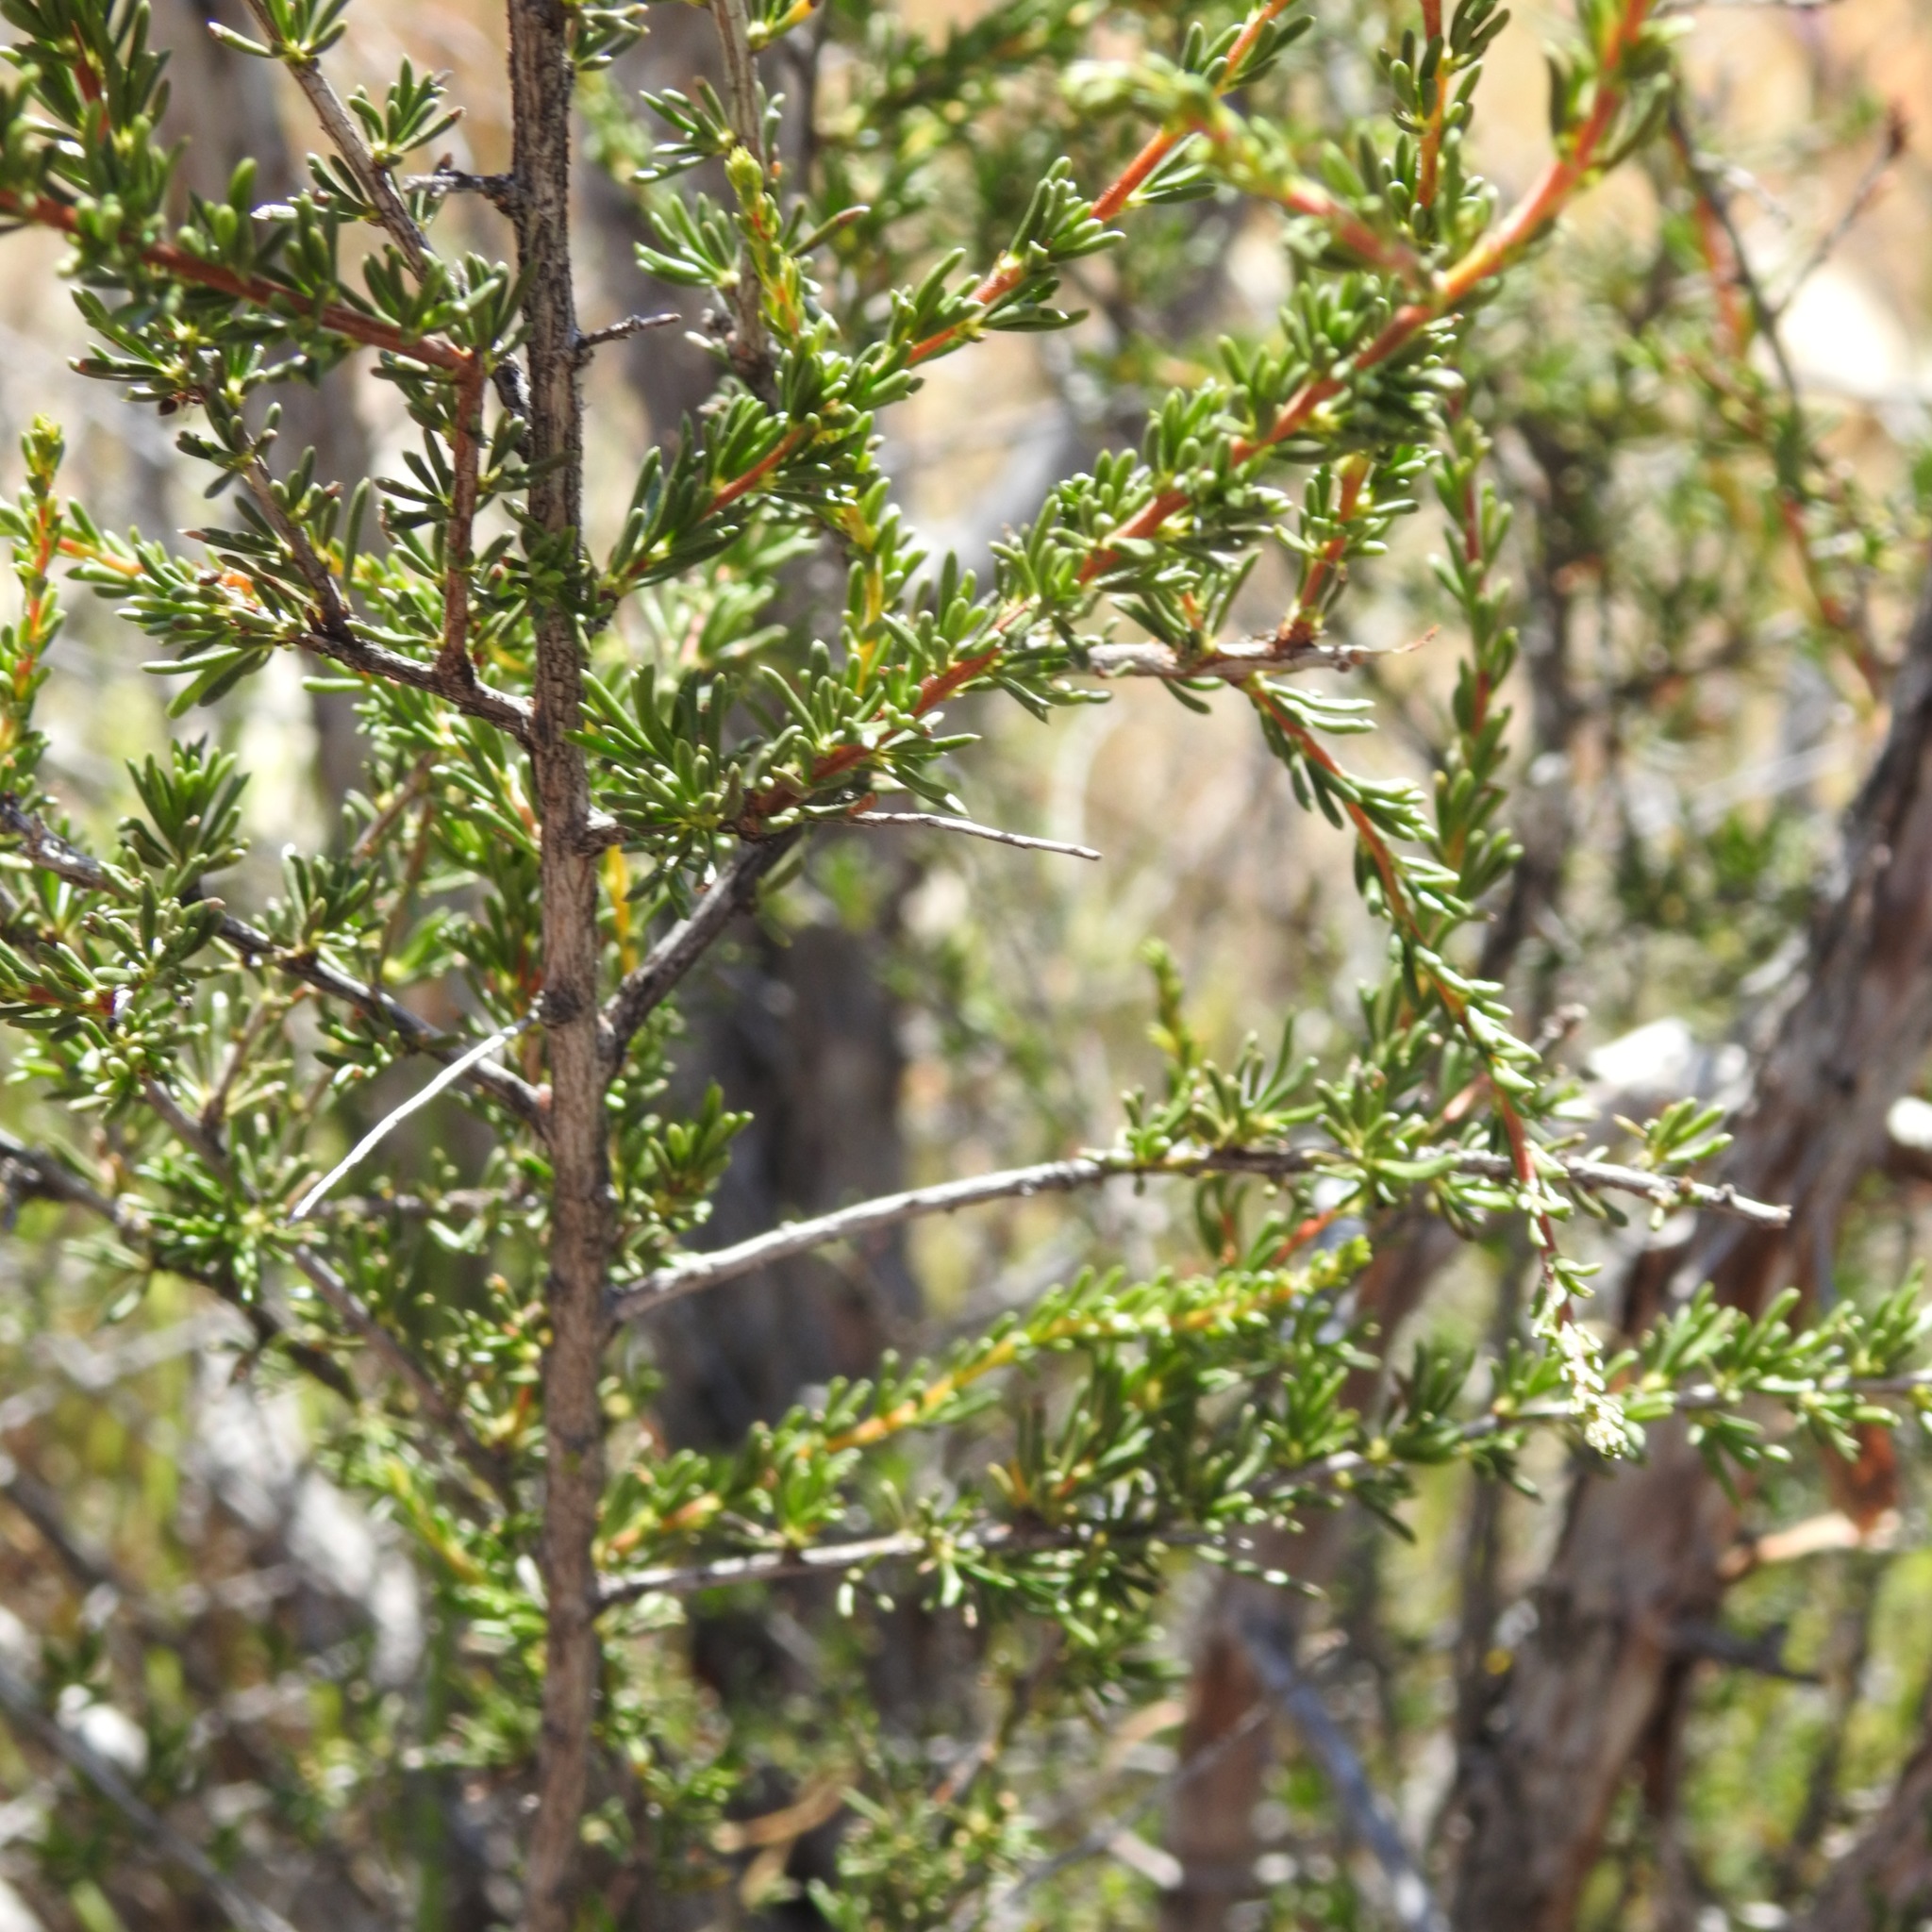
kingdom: Plantae
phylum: Tracheophyta
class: Magnoliopsida
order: Rosales
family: Rosaceae
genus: Adenostoma
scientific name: Adenostoma fasciculatum
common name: Chamise
